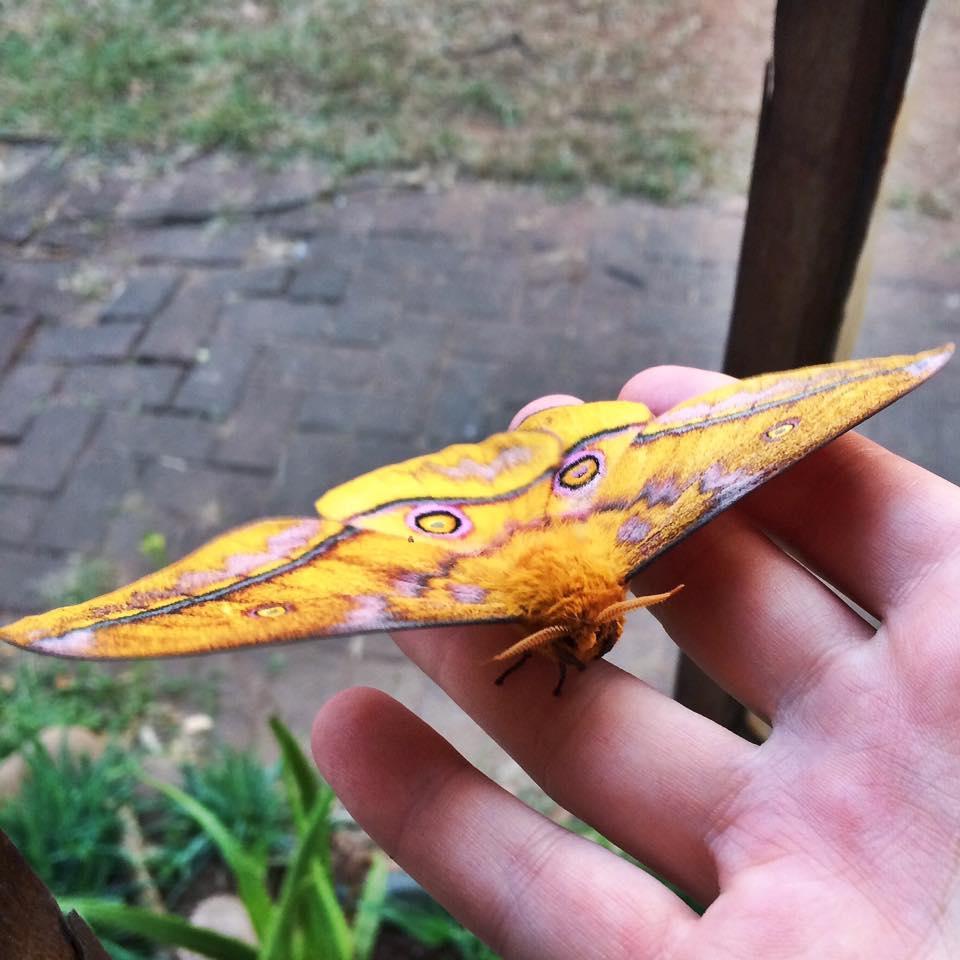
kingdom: Animalia
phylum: Arthropoda
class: Insecta
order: Lepidoptera
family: Saturniidae
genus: Nudaurelia
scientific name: Nudaurelia wahlbergi
